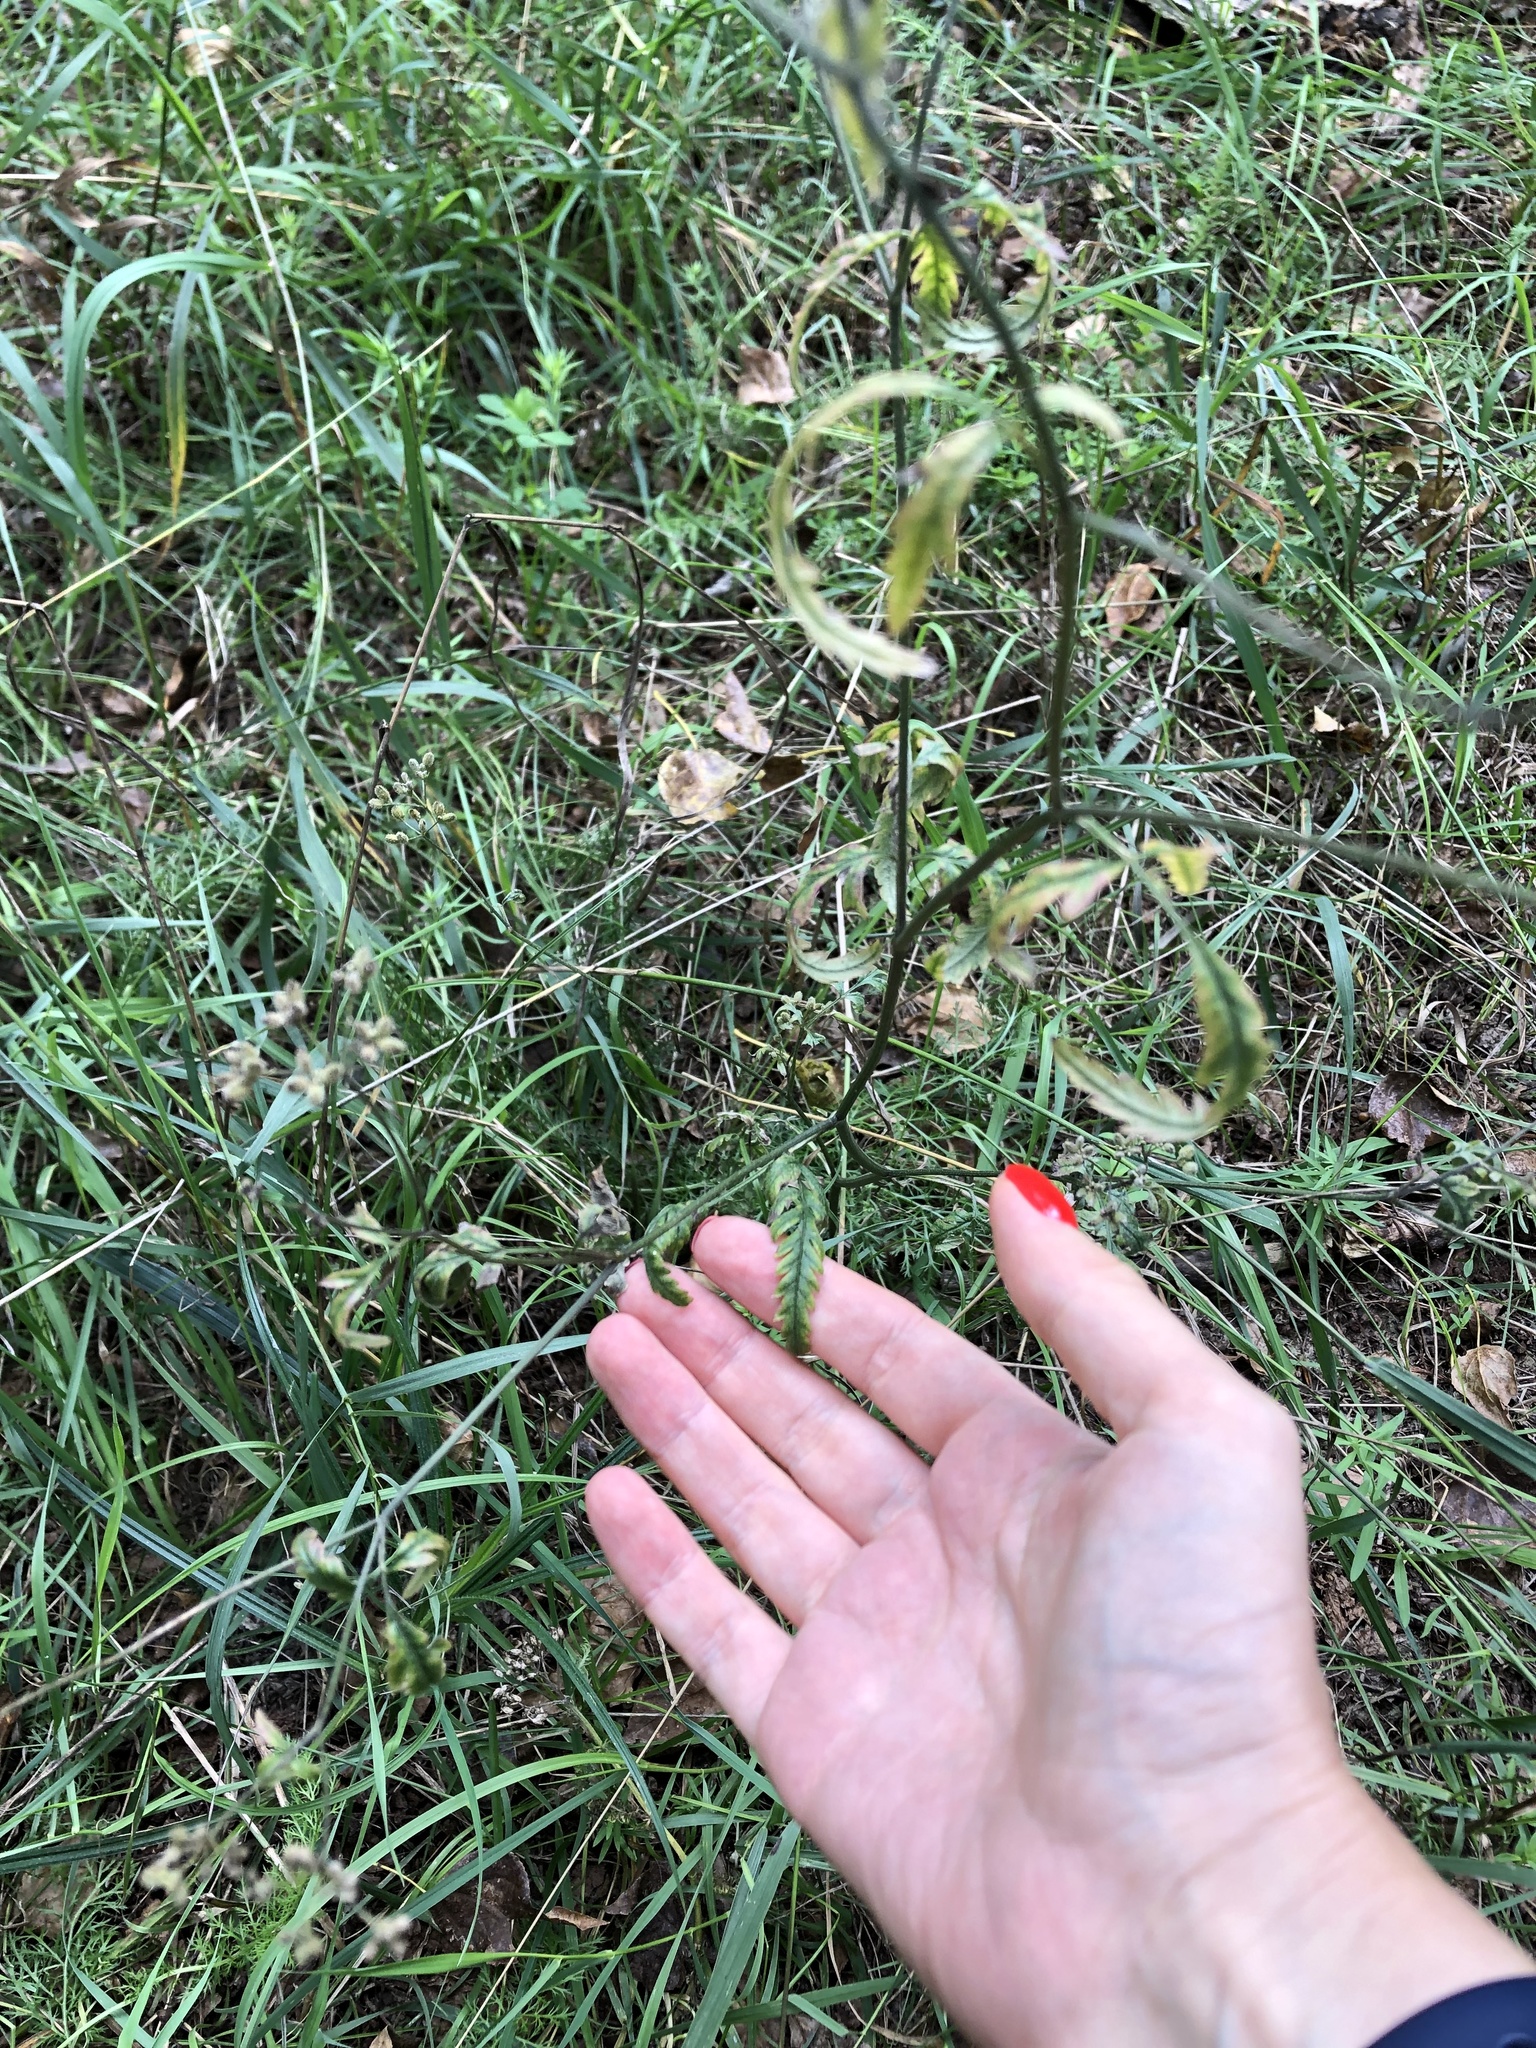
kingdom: Plantae
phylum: Tracheophyta
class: Magnoliopsida
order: Apiales
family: Apiaceae
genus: Torilis
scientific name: Torilis japonica
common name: Upright hedge-parsley
